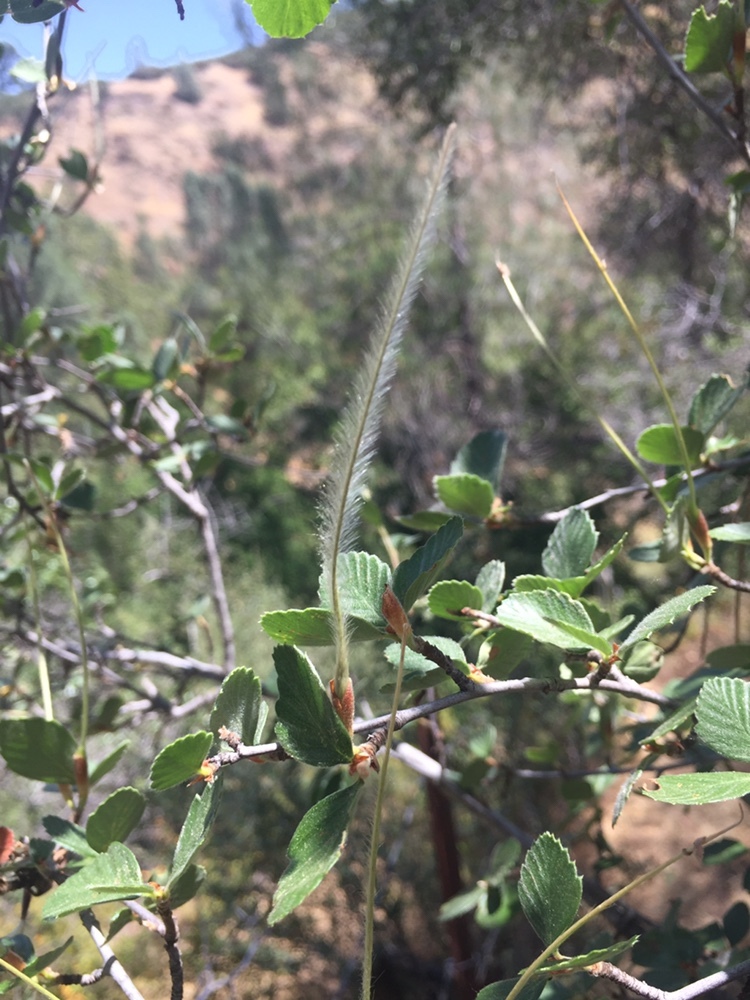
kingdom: Plantae
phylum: Tracheophyta
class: Magnoliopsida
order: Rosales
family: Rosaceae
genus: Cercocarpus
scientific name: Cercocarpus betuloides
